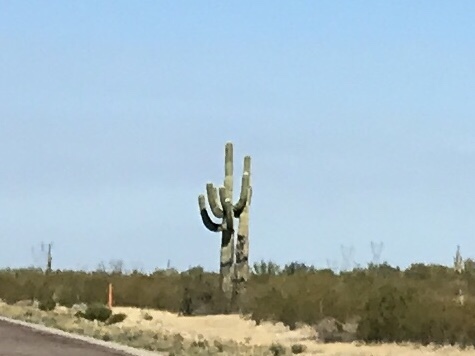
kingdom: Plantae
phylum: Tracheophyta
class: Magnoliopsida
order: Caryophyllales
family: Cactaceae
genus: Carnegiea
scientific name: Carnegiea gigantea
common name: Saguaro
